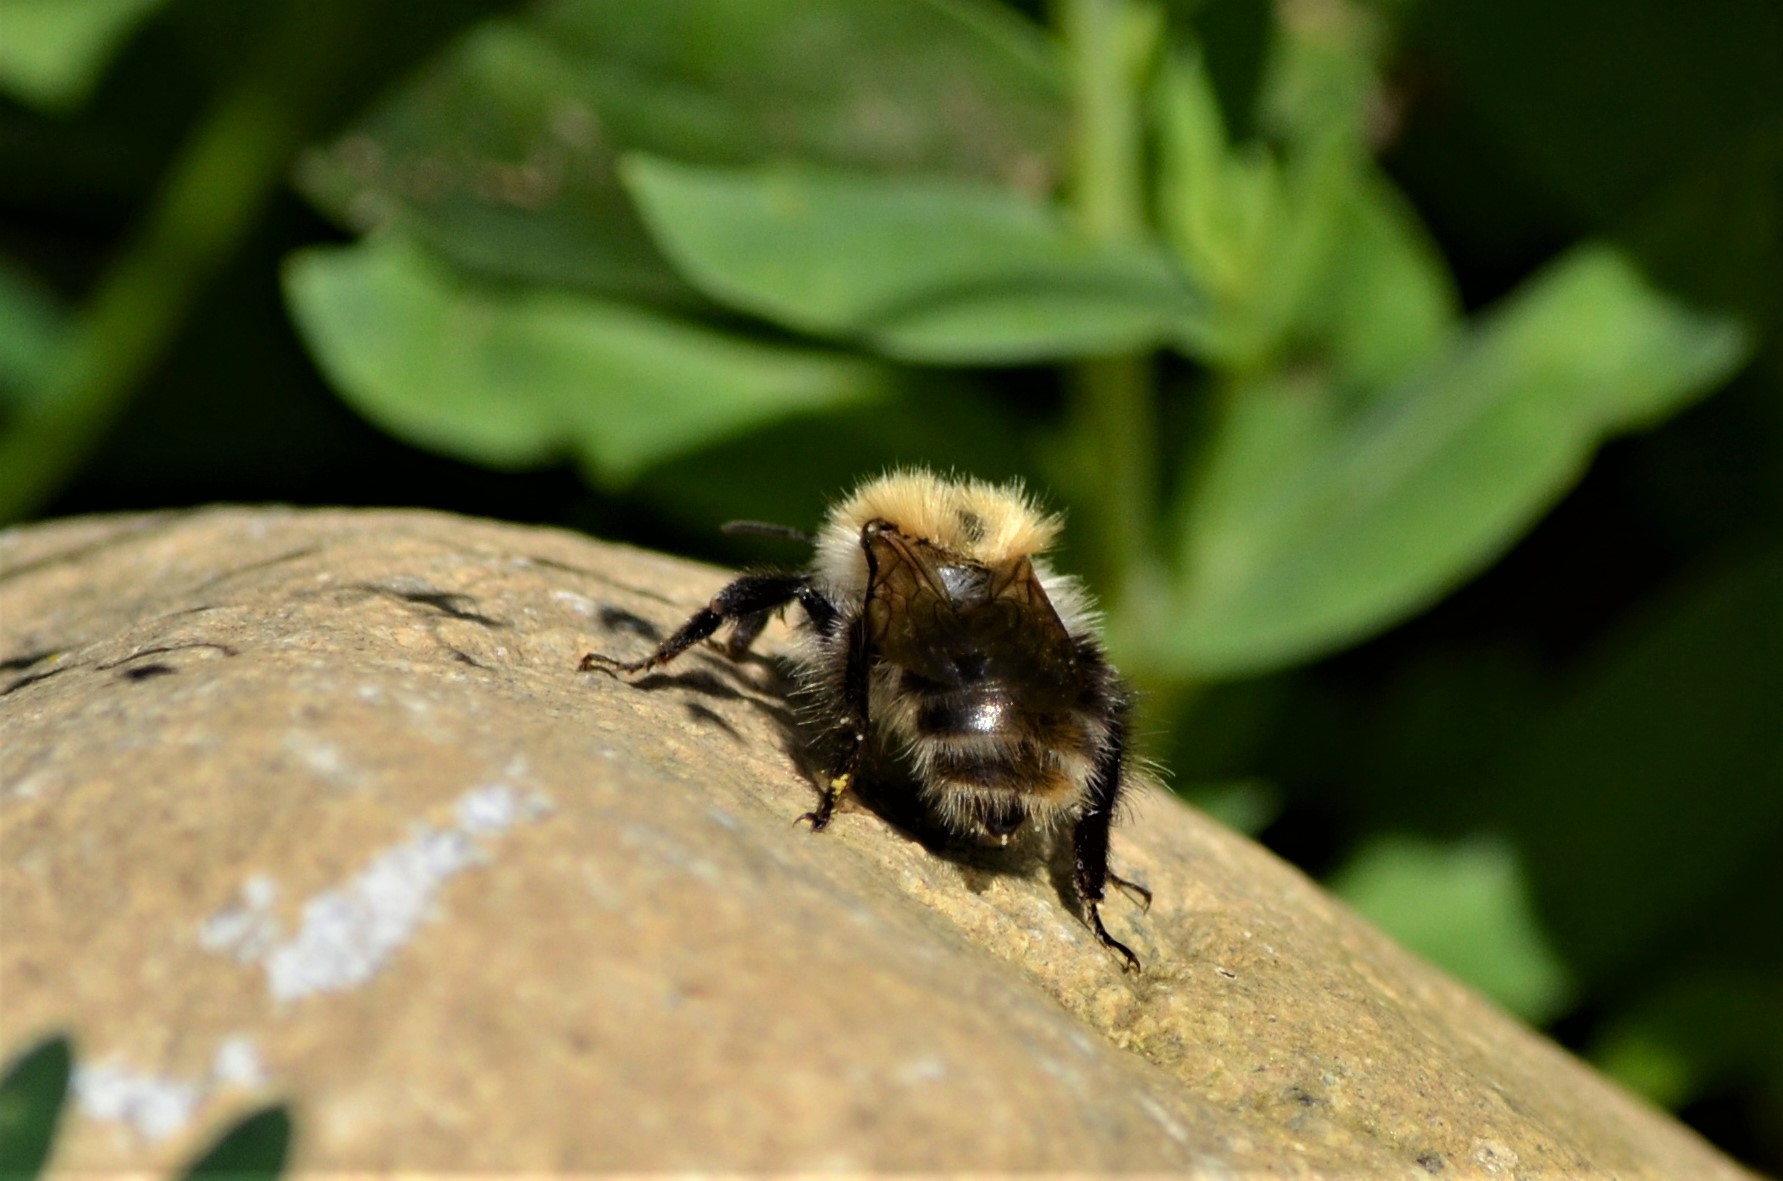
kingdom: Animalia
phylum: Arthropoda
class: Insecta
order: Hymenoptera
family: Apidae
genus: Bombus
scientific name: Bombus pascuorum
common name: Common carder bee
